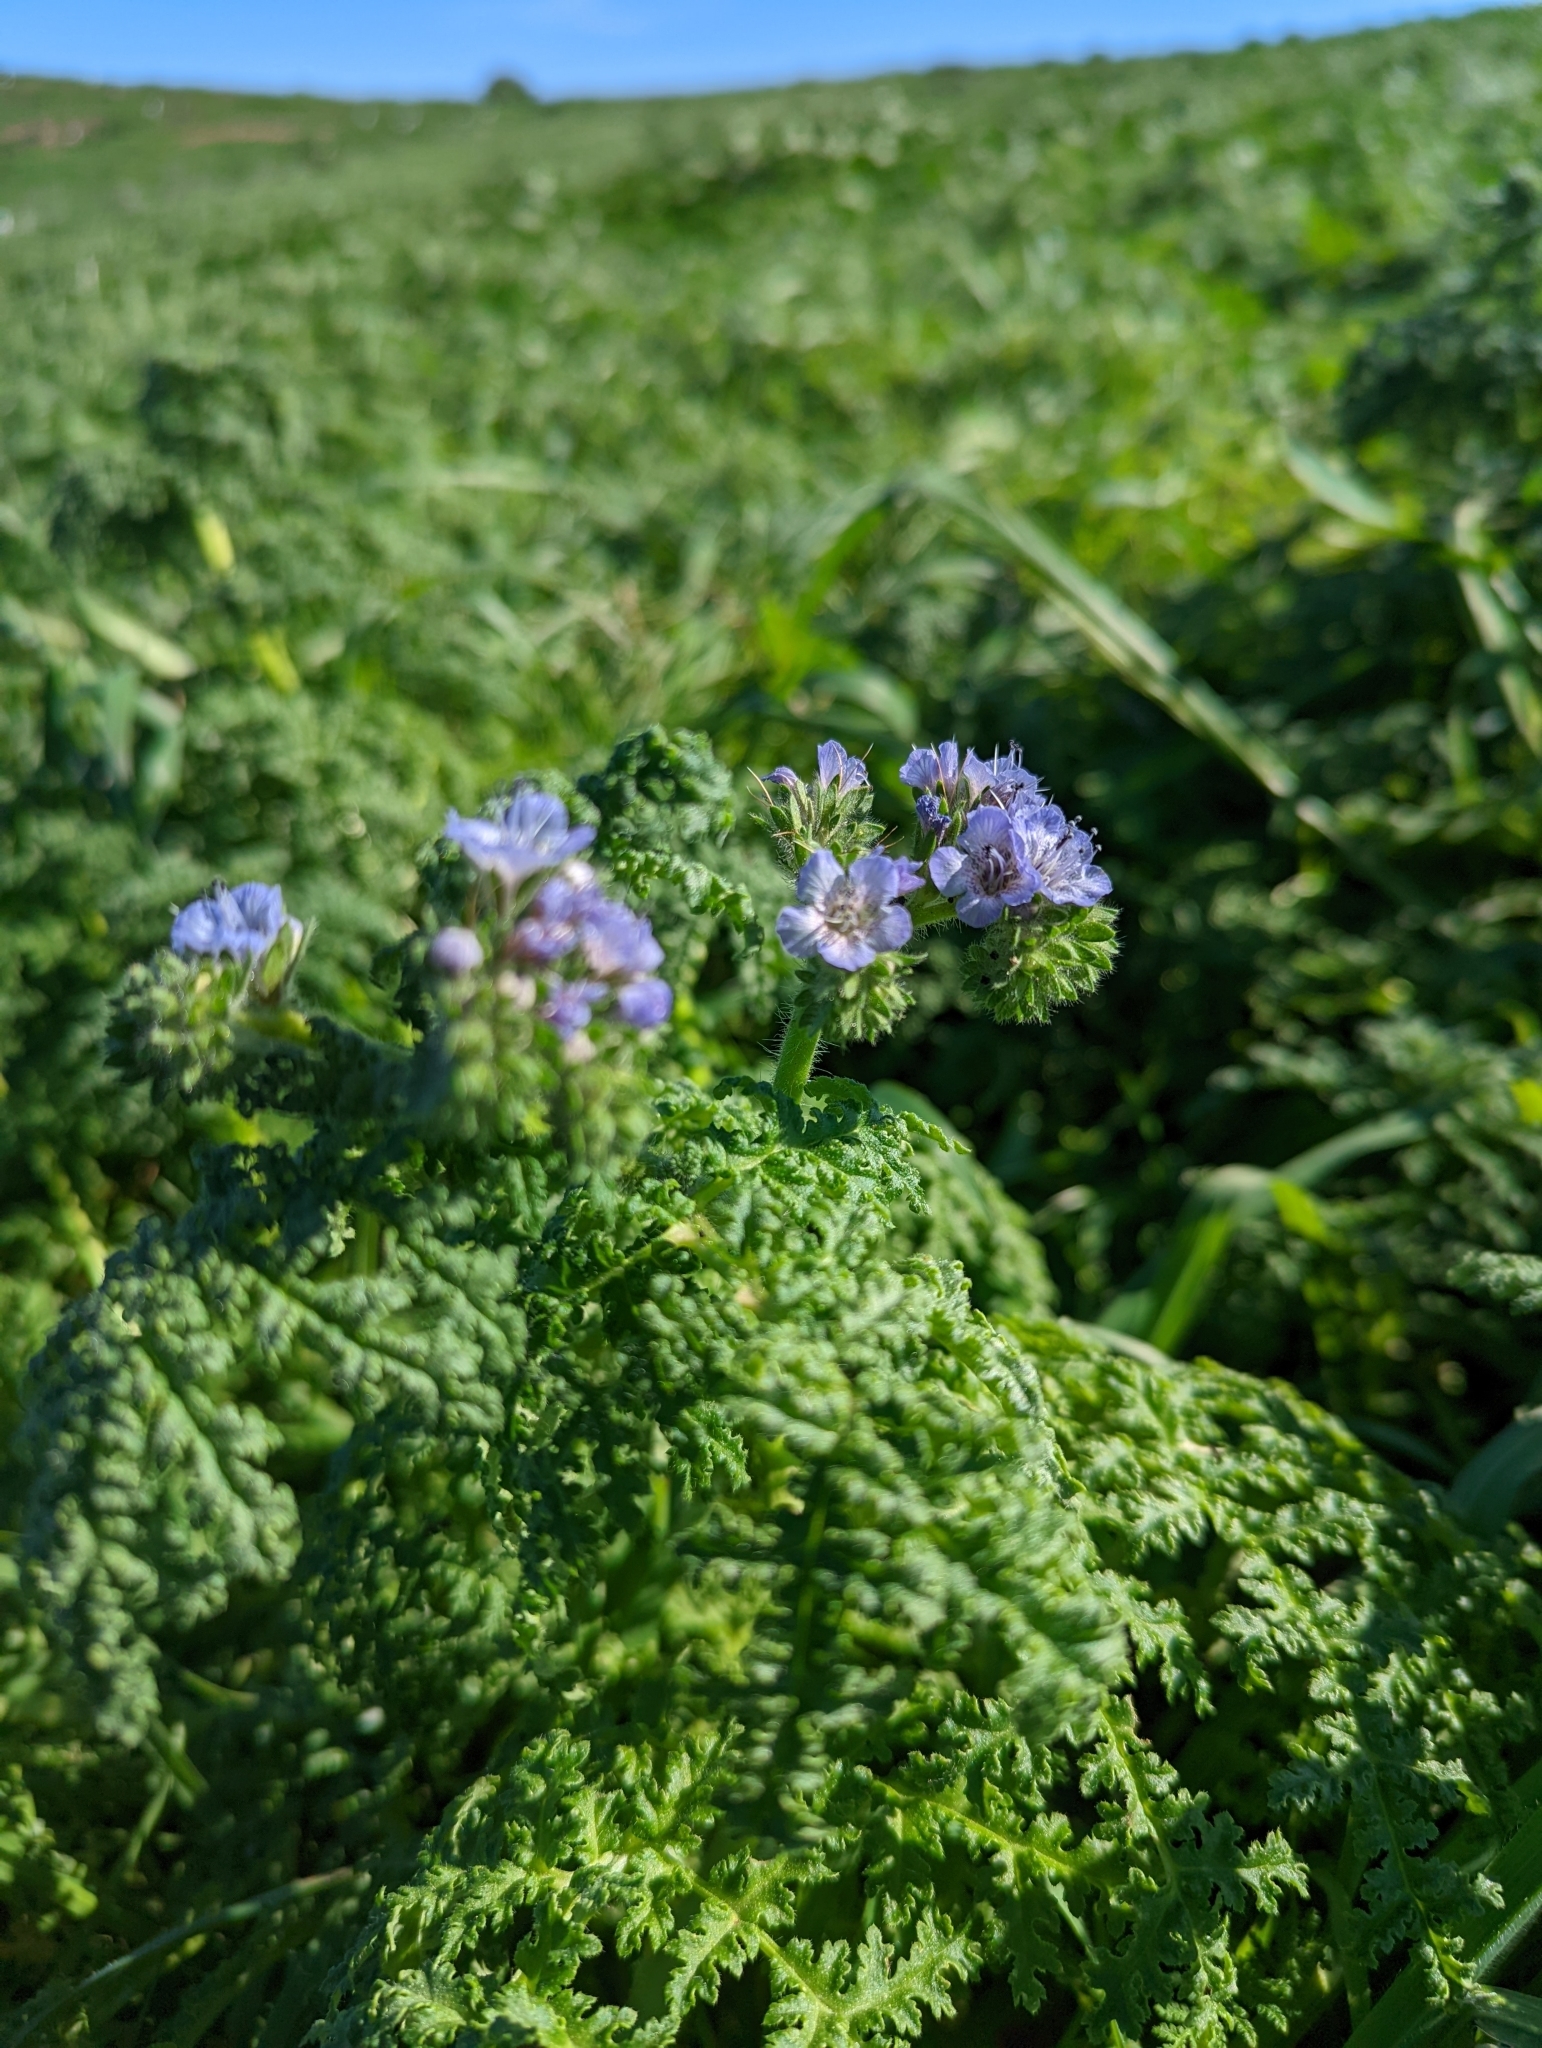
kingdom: Plantae
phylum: Tracheophyta
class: Magnoliopsida
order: Boraginales
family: Hydrophyllaceae
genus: Phacelia
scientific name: Phacelia distans
